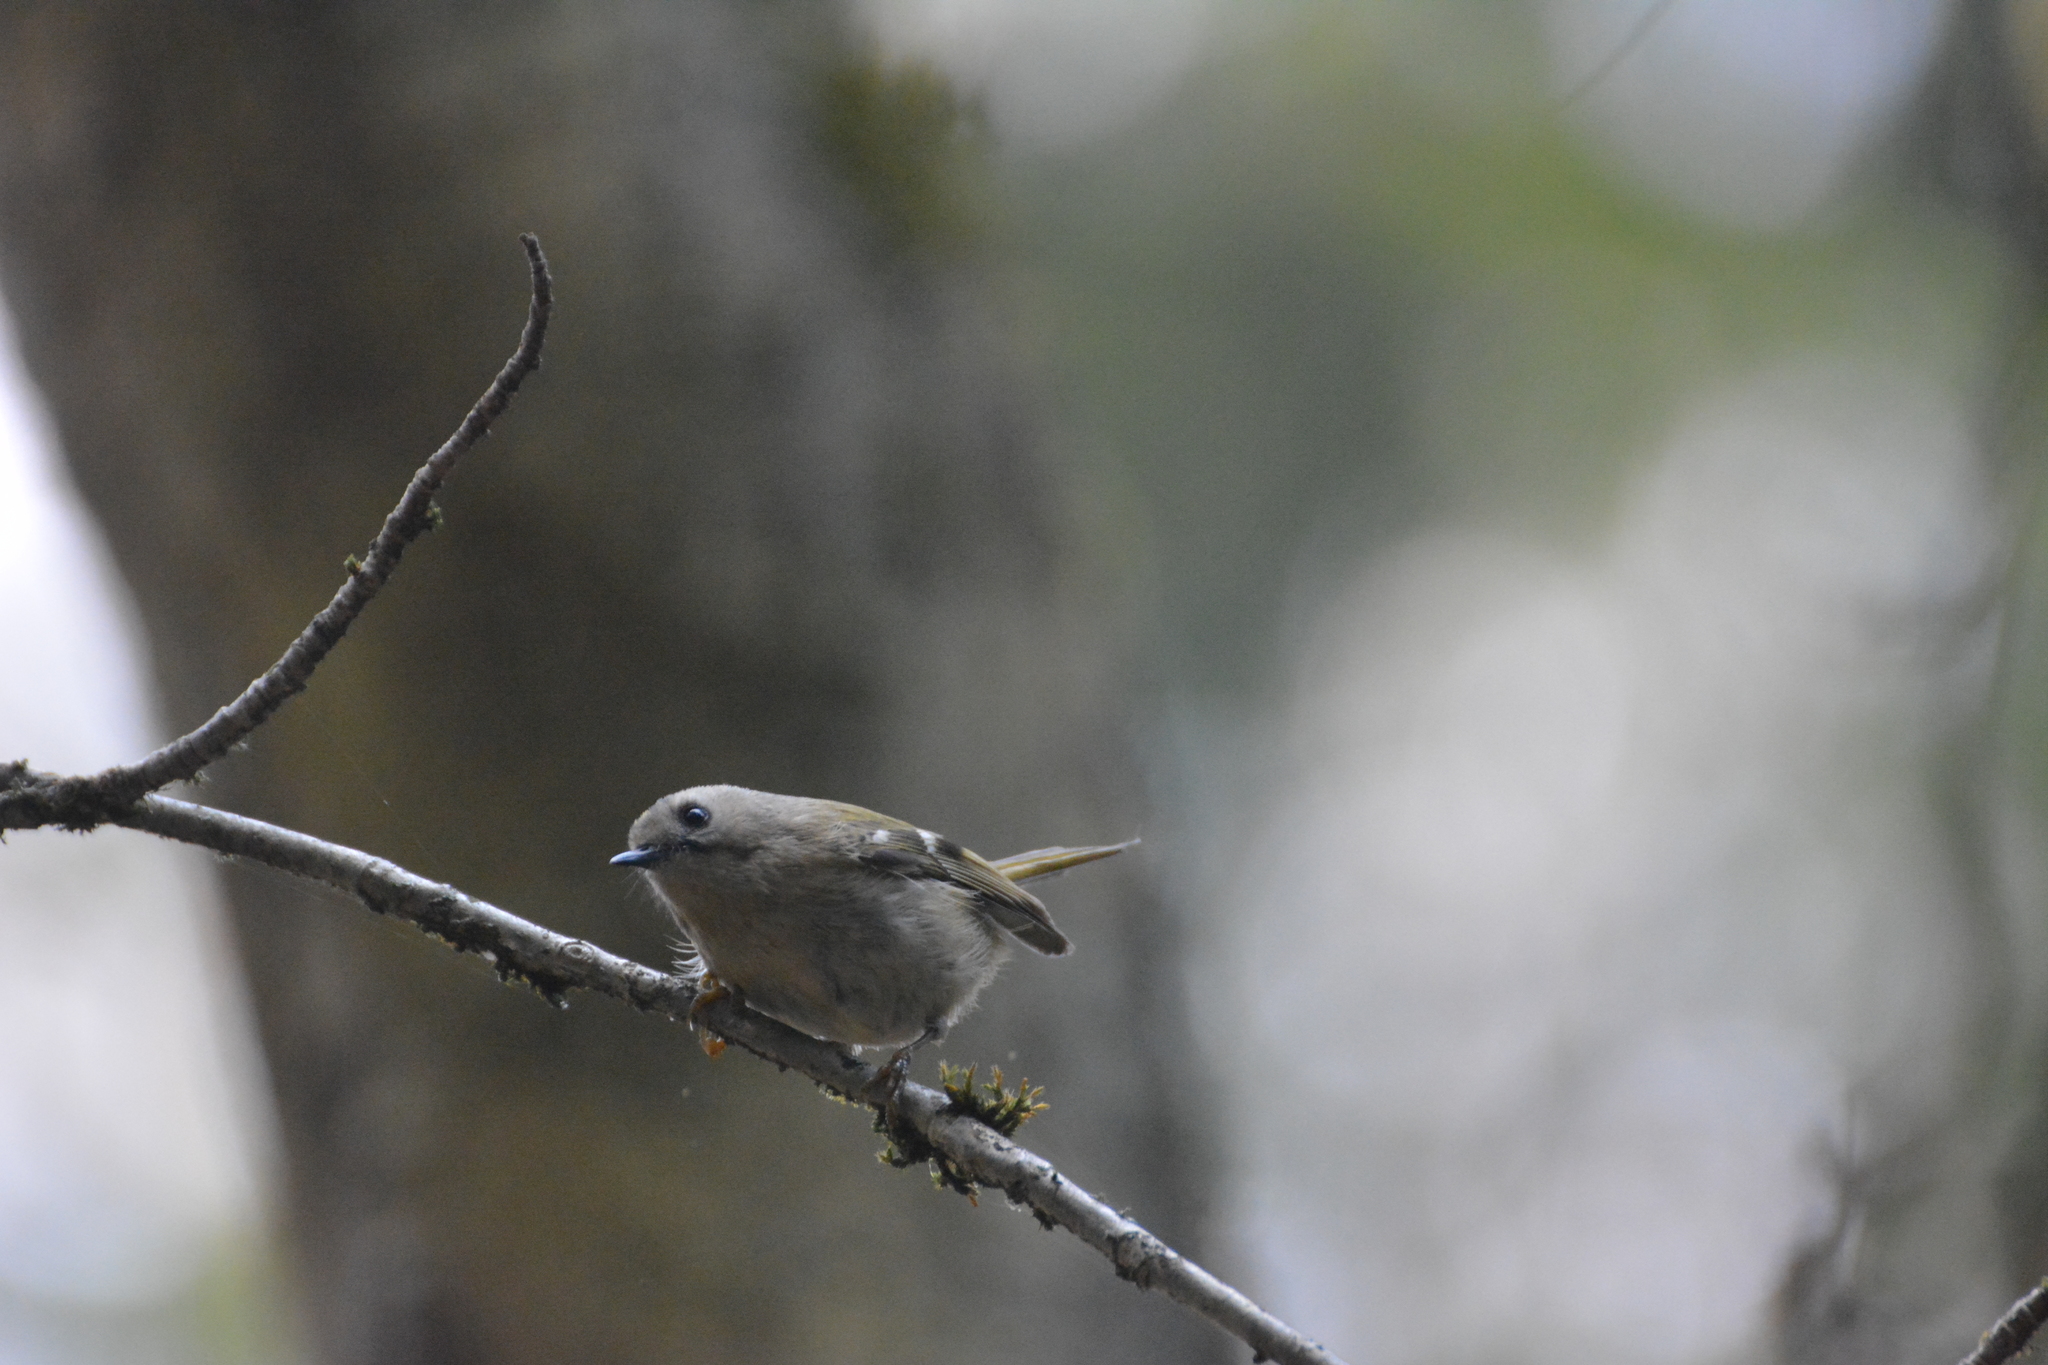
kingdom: Animalia
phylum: Chordata
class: Aves
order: Passeriformes
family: Regulidae
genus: Regulus
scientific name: Regulus regulus
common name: Goldcrest
